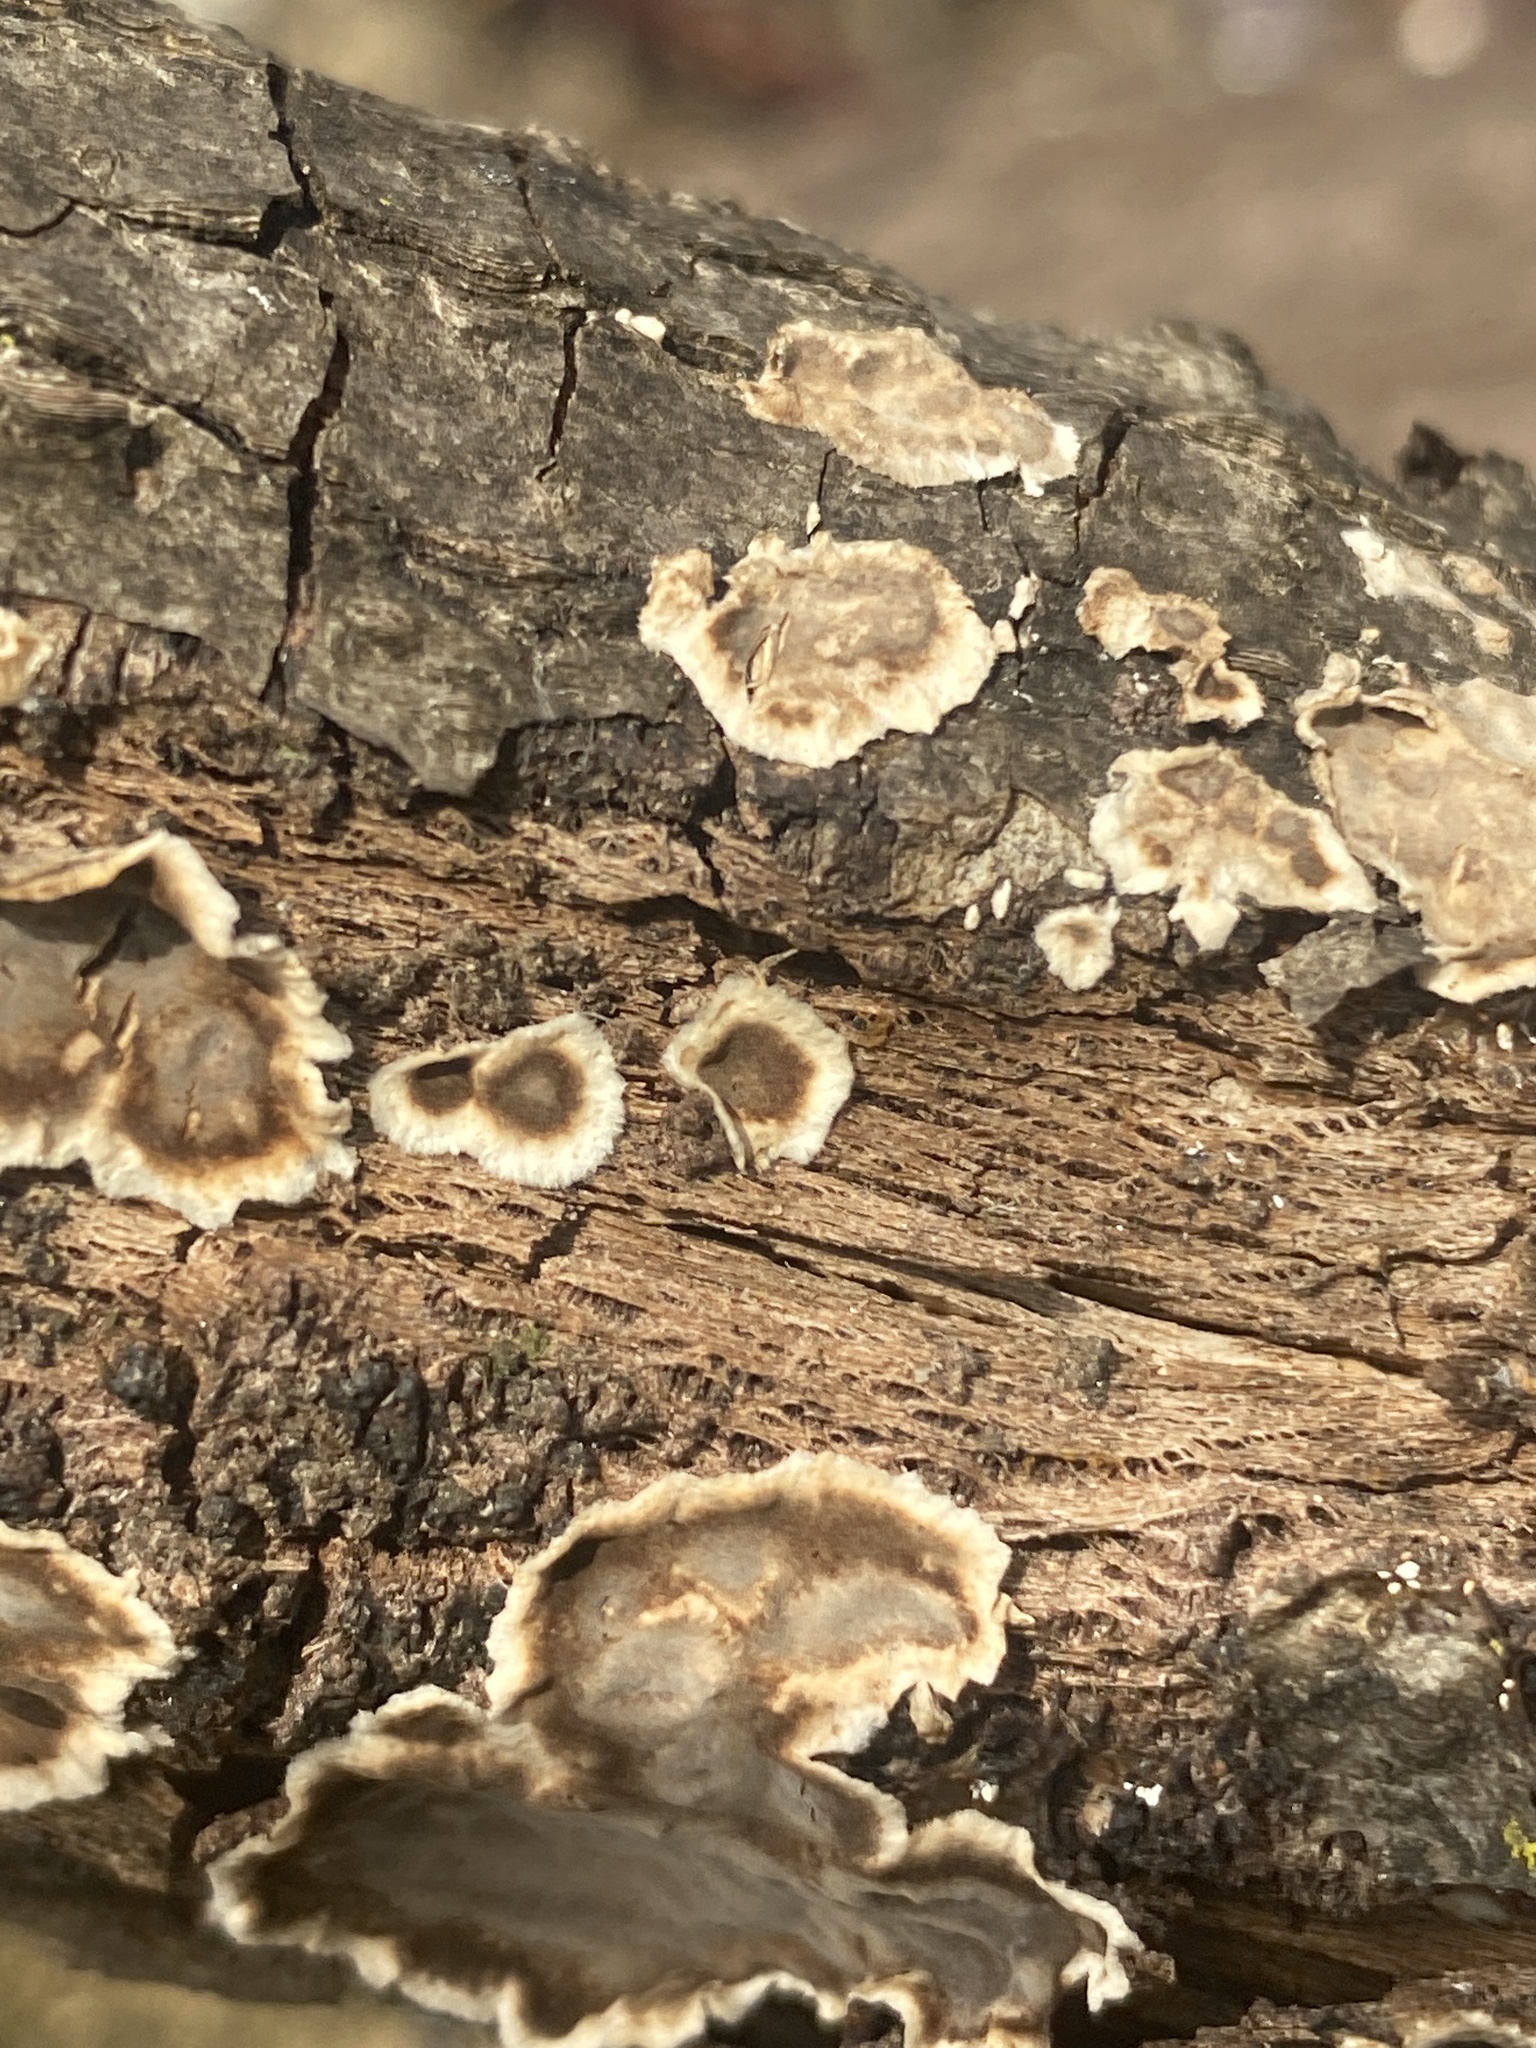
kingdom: Fungi
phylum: Basidiomycota
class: Agaricomycetes
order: Russulales
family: Peniophoraceae
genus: Peniophora
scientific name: Peniophora albobadia
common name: Giraffe spots
